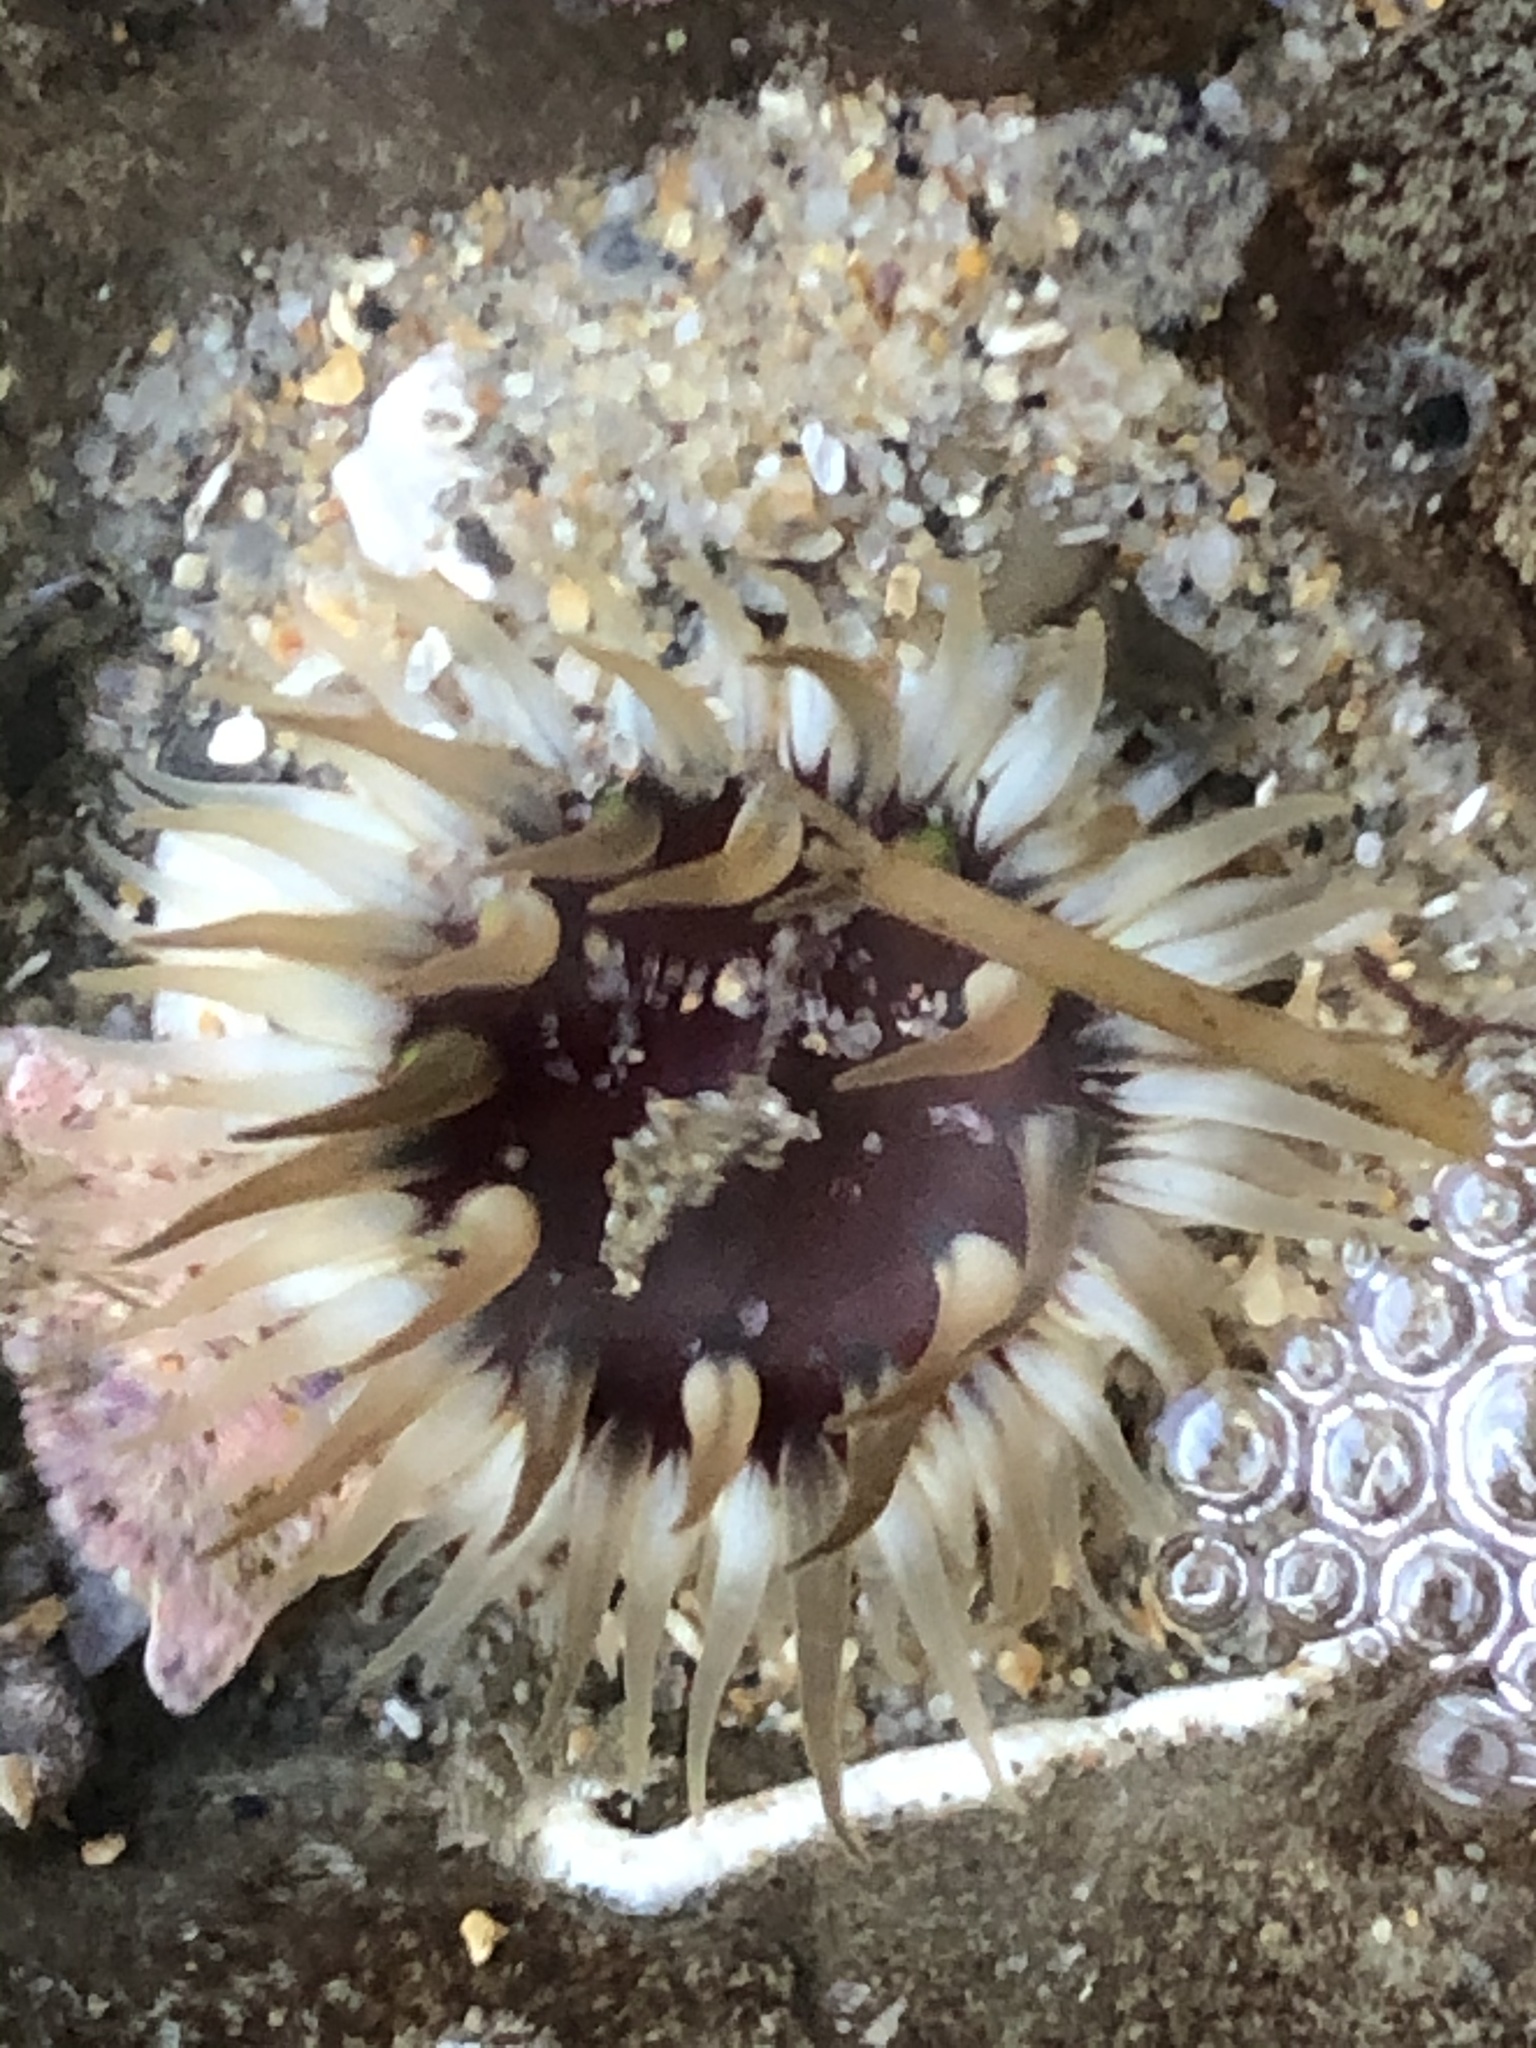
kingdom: Animalia
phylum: Cnidaria
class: Anthozoa
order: Actiniaria
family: Actiniidae
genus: Anthopleura
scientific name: Anthopleura artemisia
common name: Buried sea anemone
